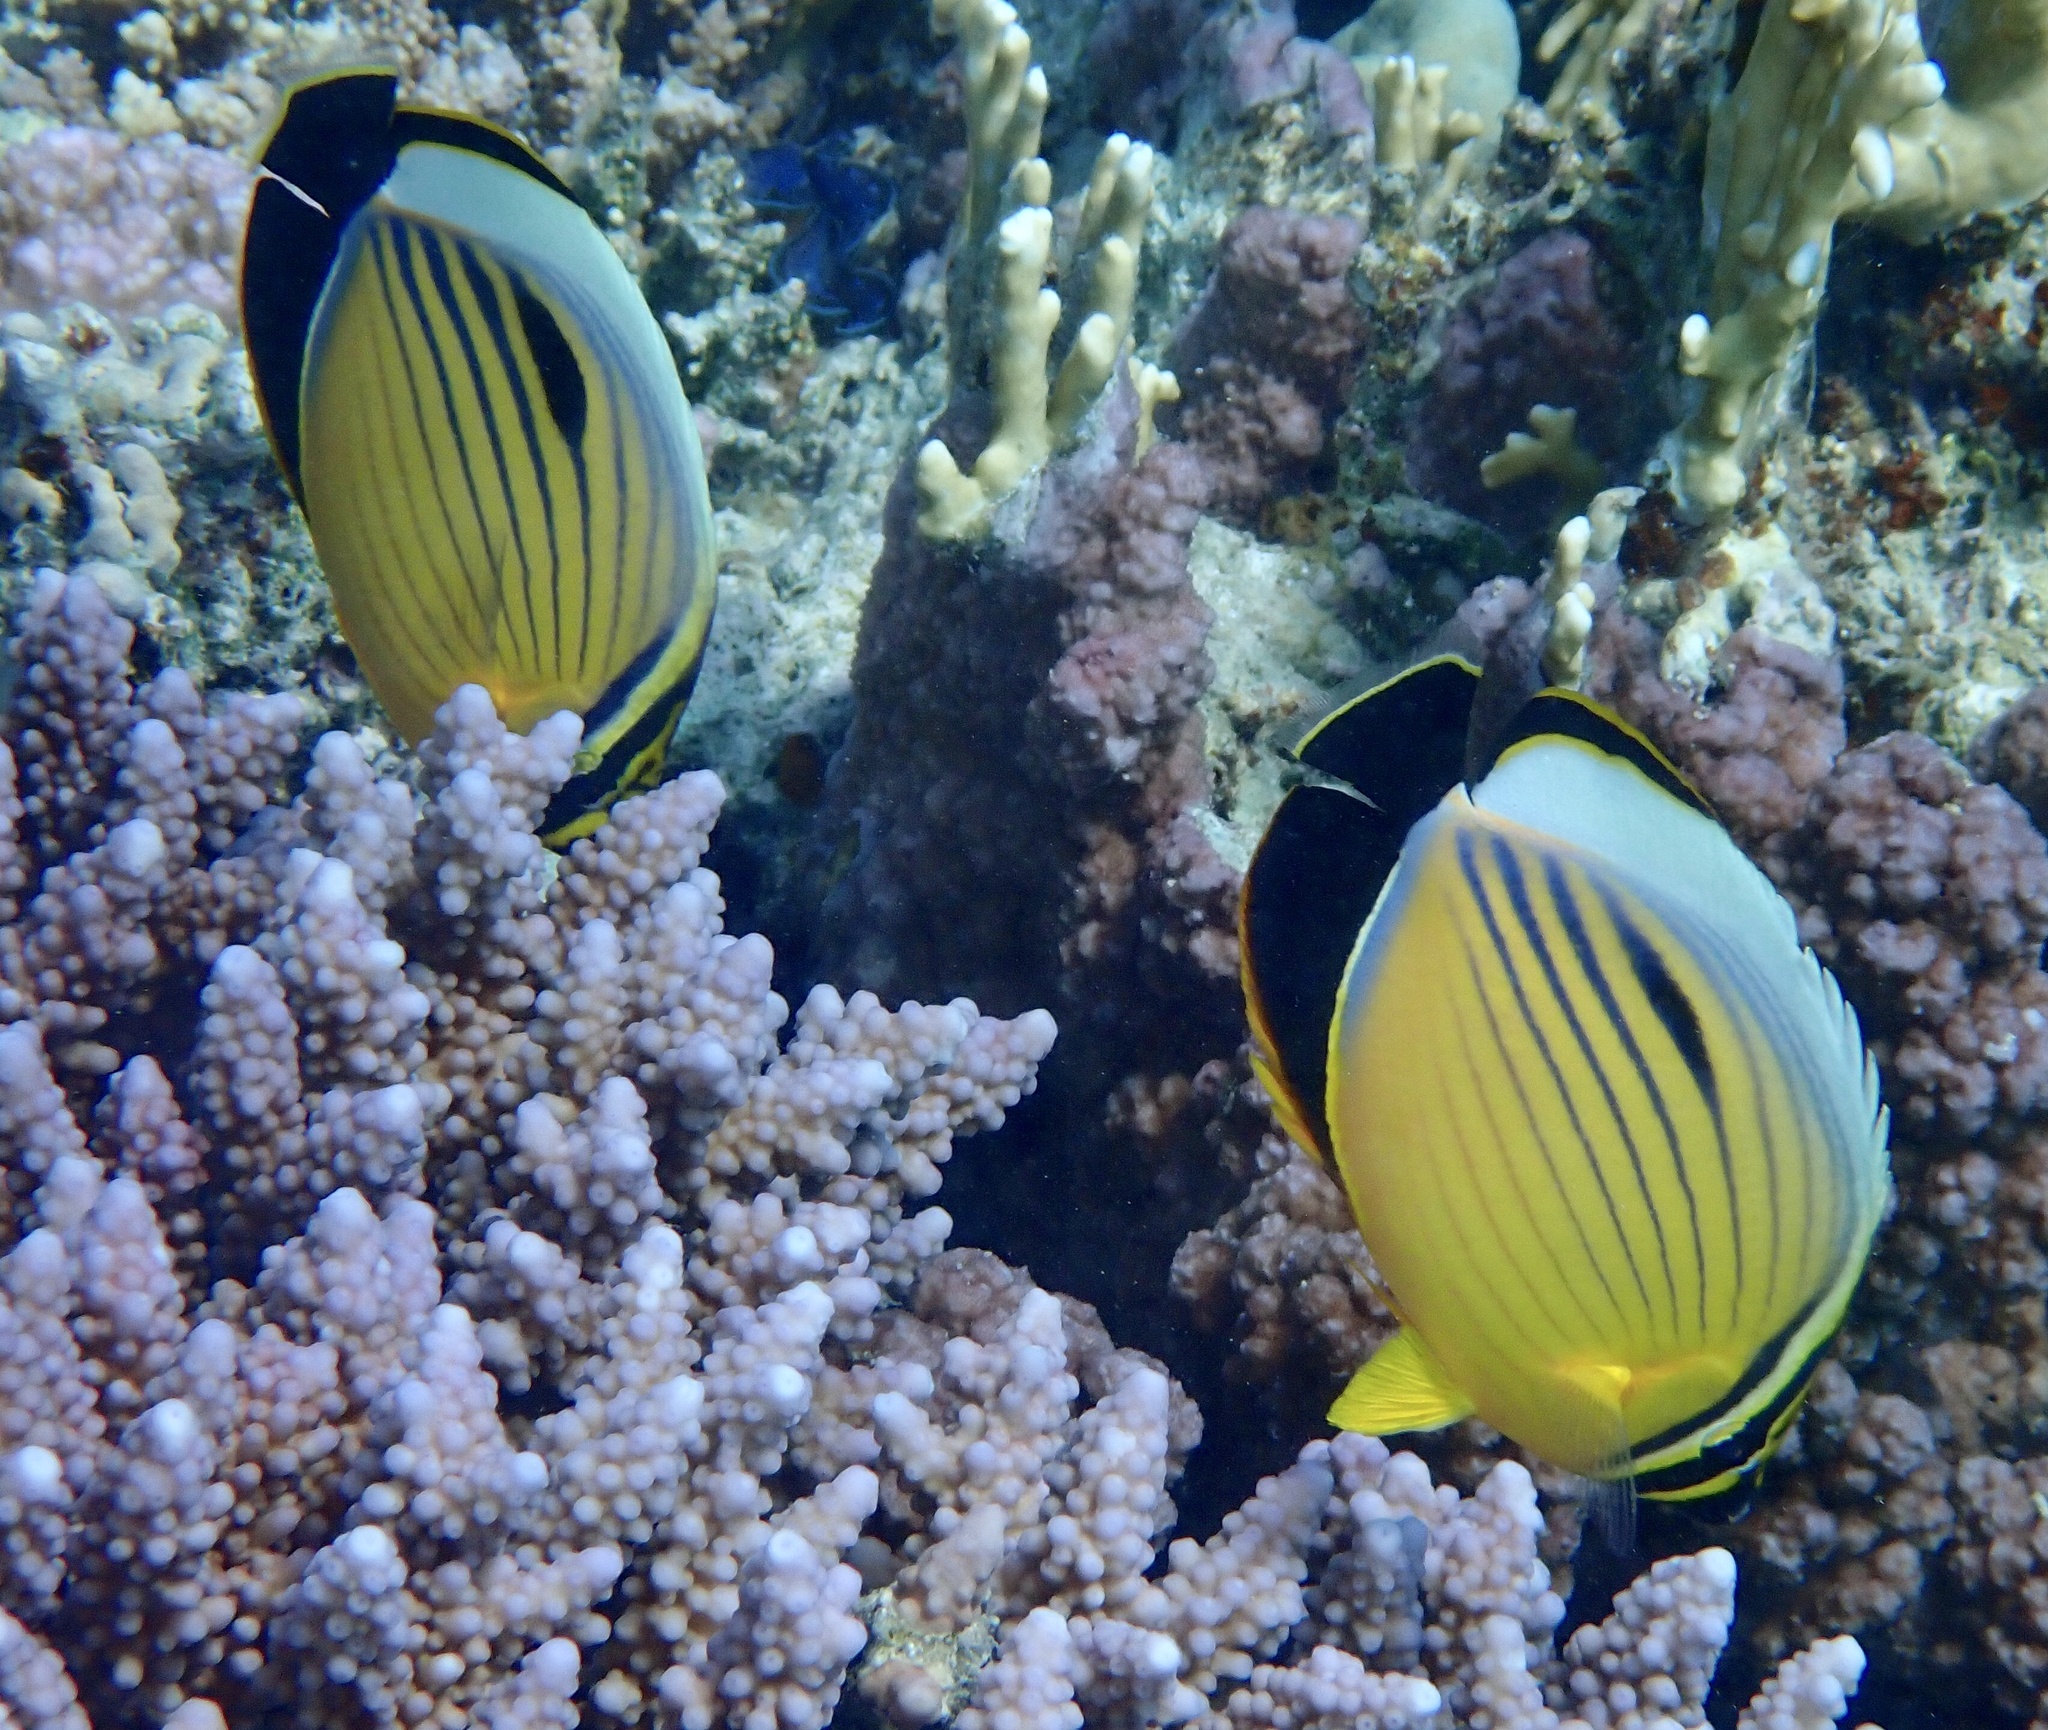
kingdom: Animalia
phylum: Chordata
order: Perciformes
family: Chaetodontidae
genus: Chaetodon
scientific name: Chaetodon austriacus
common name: Exquisite butterflyfish
